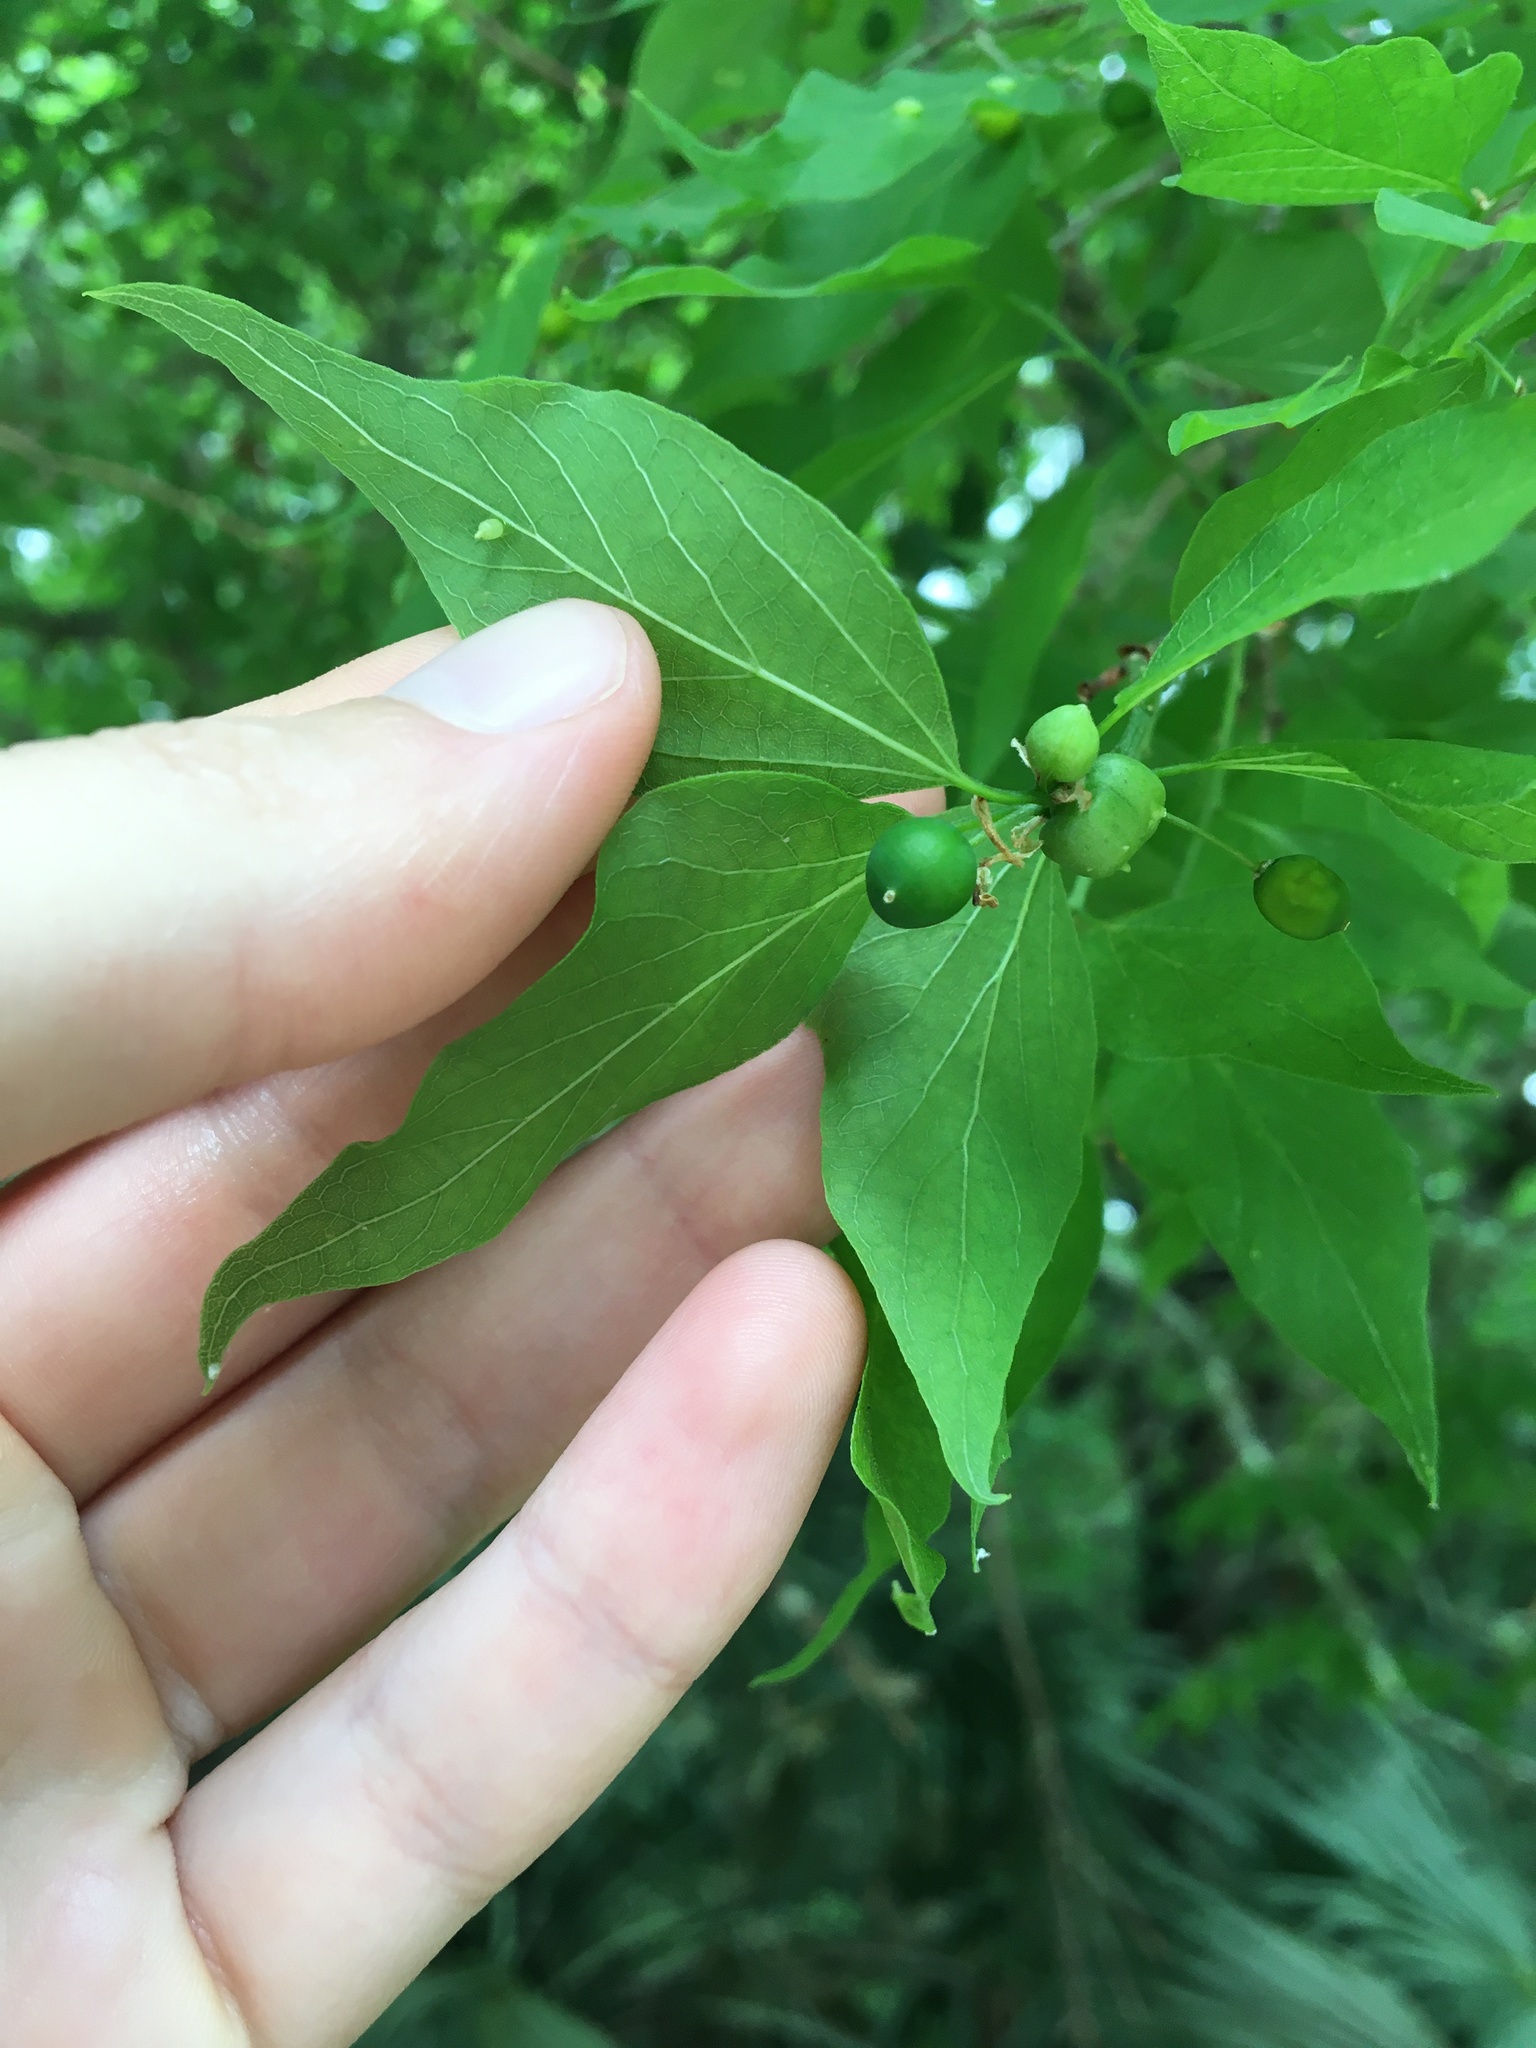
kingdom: Plantae
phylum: Tracheophyta
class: Magnoliopsida
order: Rosales
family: Cannabaceae
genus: Celtis
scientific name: Celtis laevigata
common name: Sugarberry
